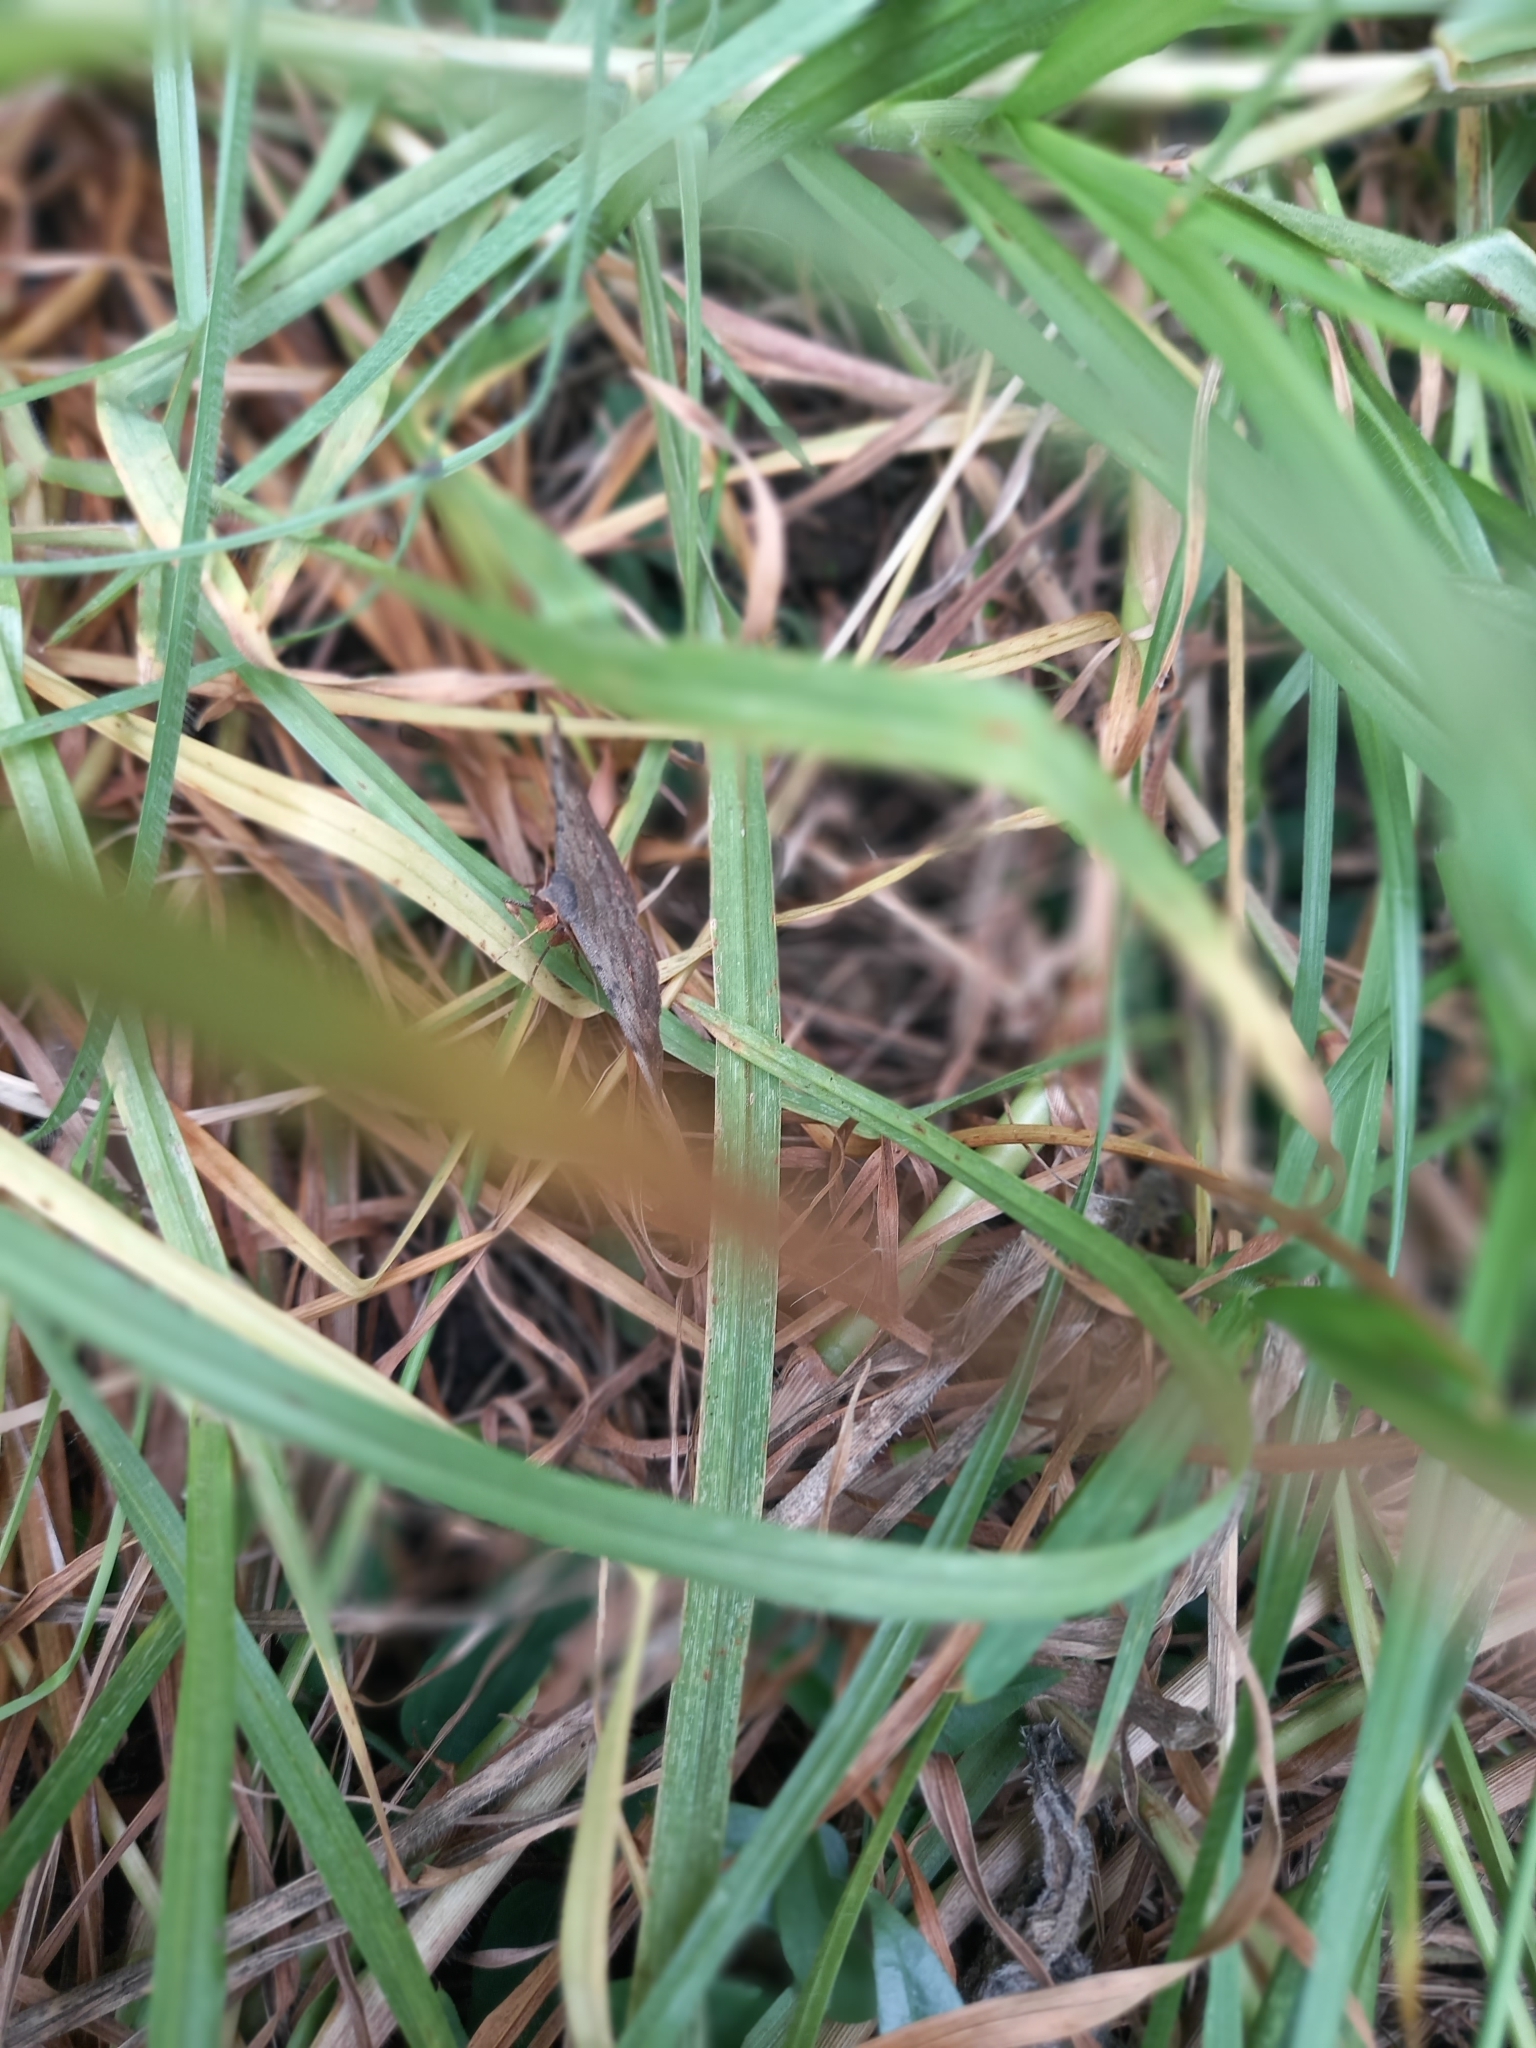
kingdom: Animalia
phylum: Arthropoda
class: Insecta
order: Lepidoptera
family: Erebidae
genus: Anticarsia
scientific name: Anticarsia gemmatalis
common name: Cutworm moth
